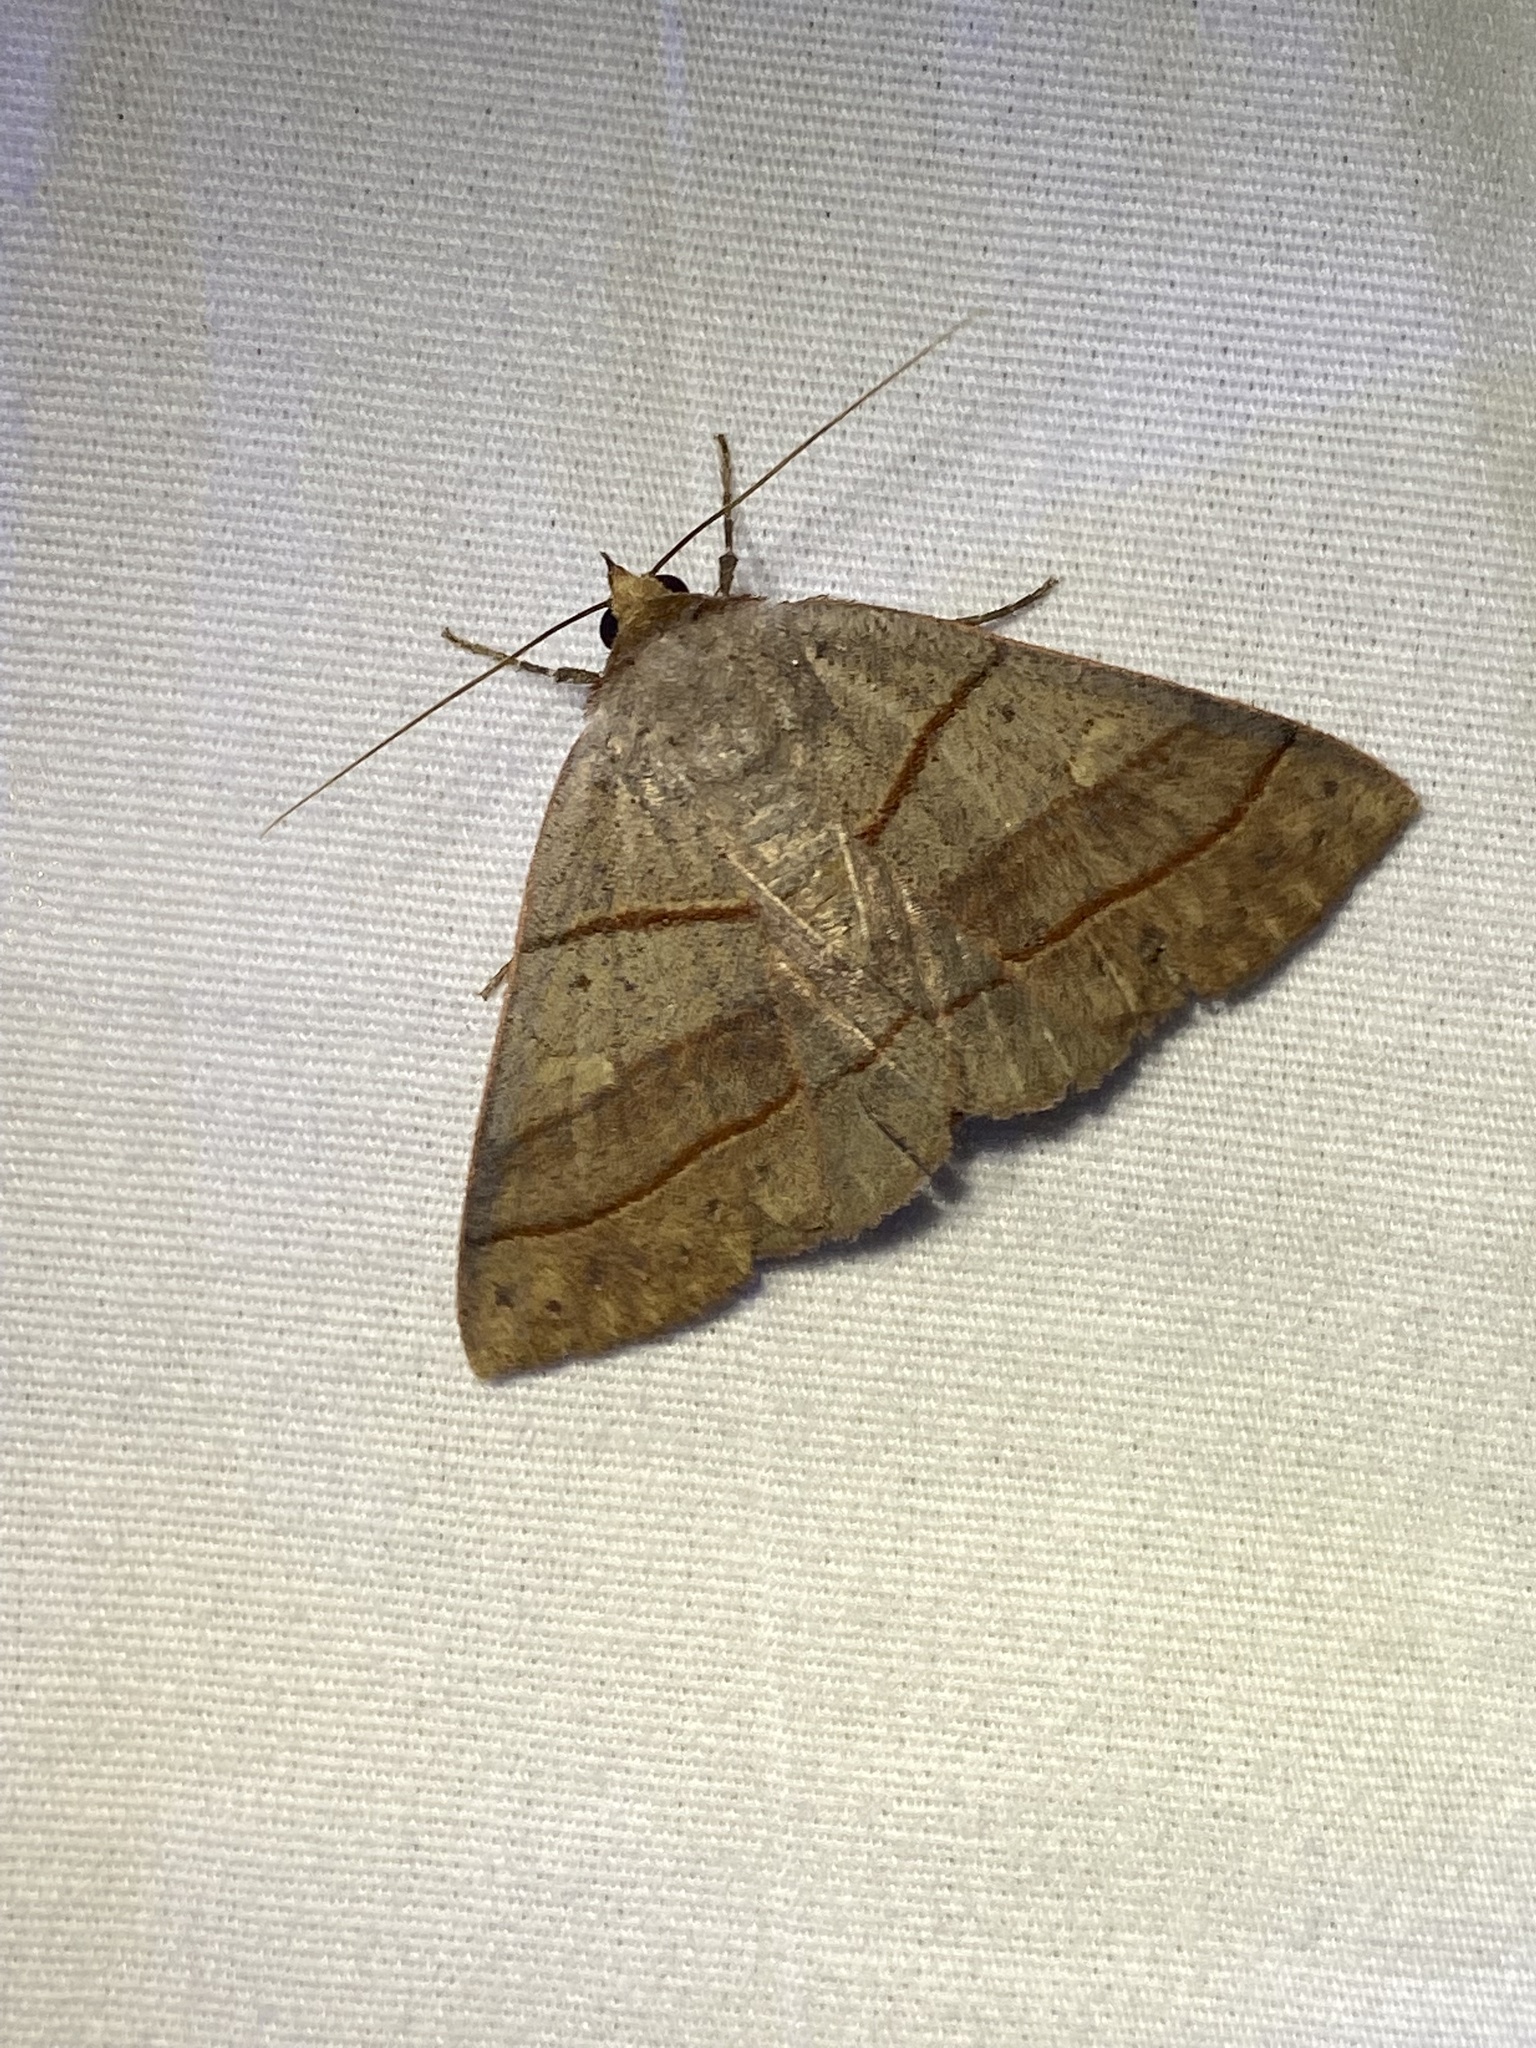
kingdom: Animalia
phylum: Arthropoda
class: Insecta
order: Lepidoptera
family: Erebidae
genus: Panopoda
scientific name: Panopoda rufimargo
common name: Red-lined panopoda moth
